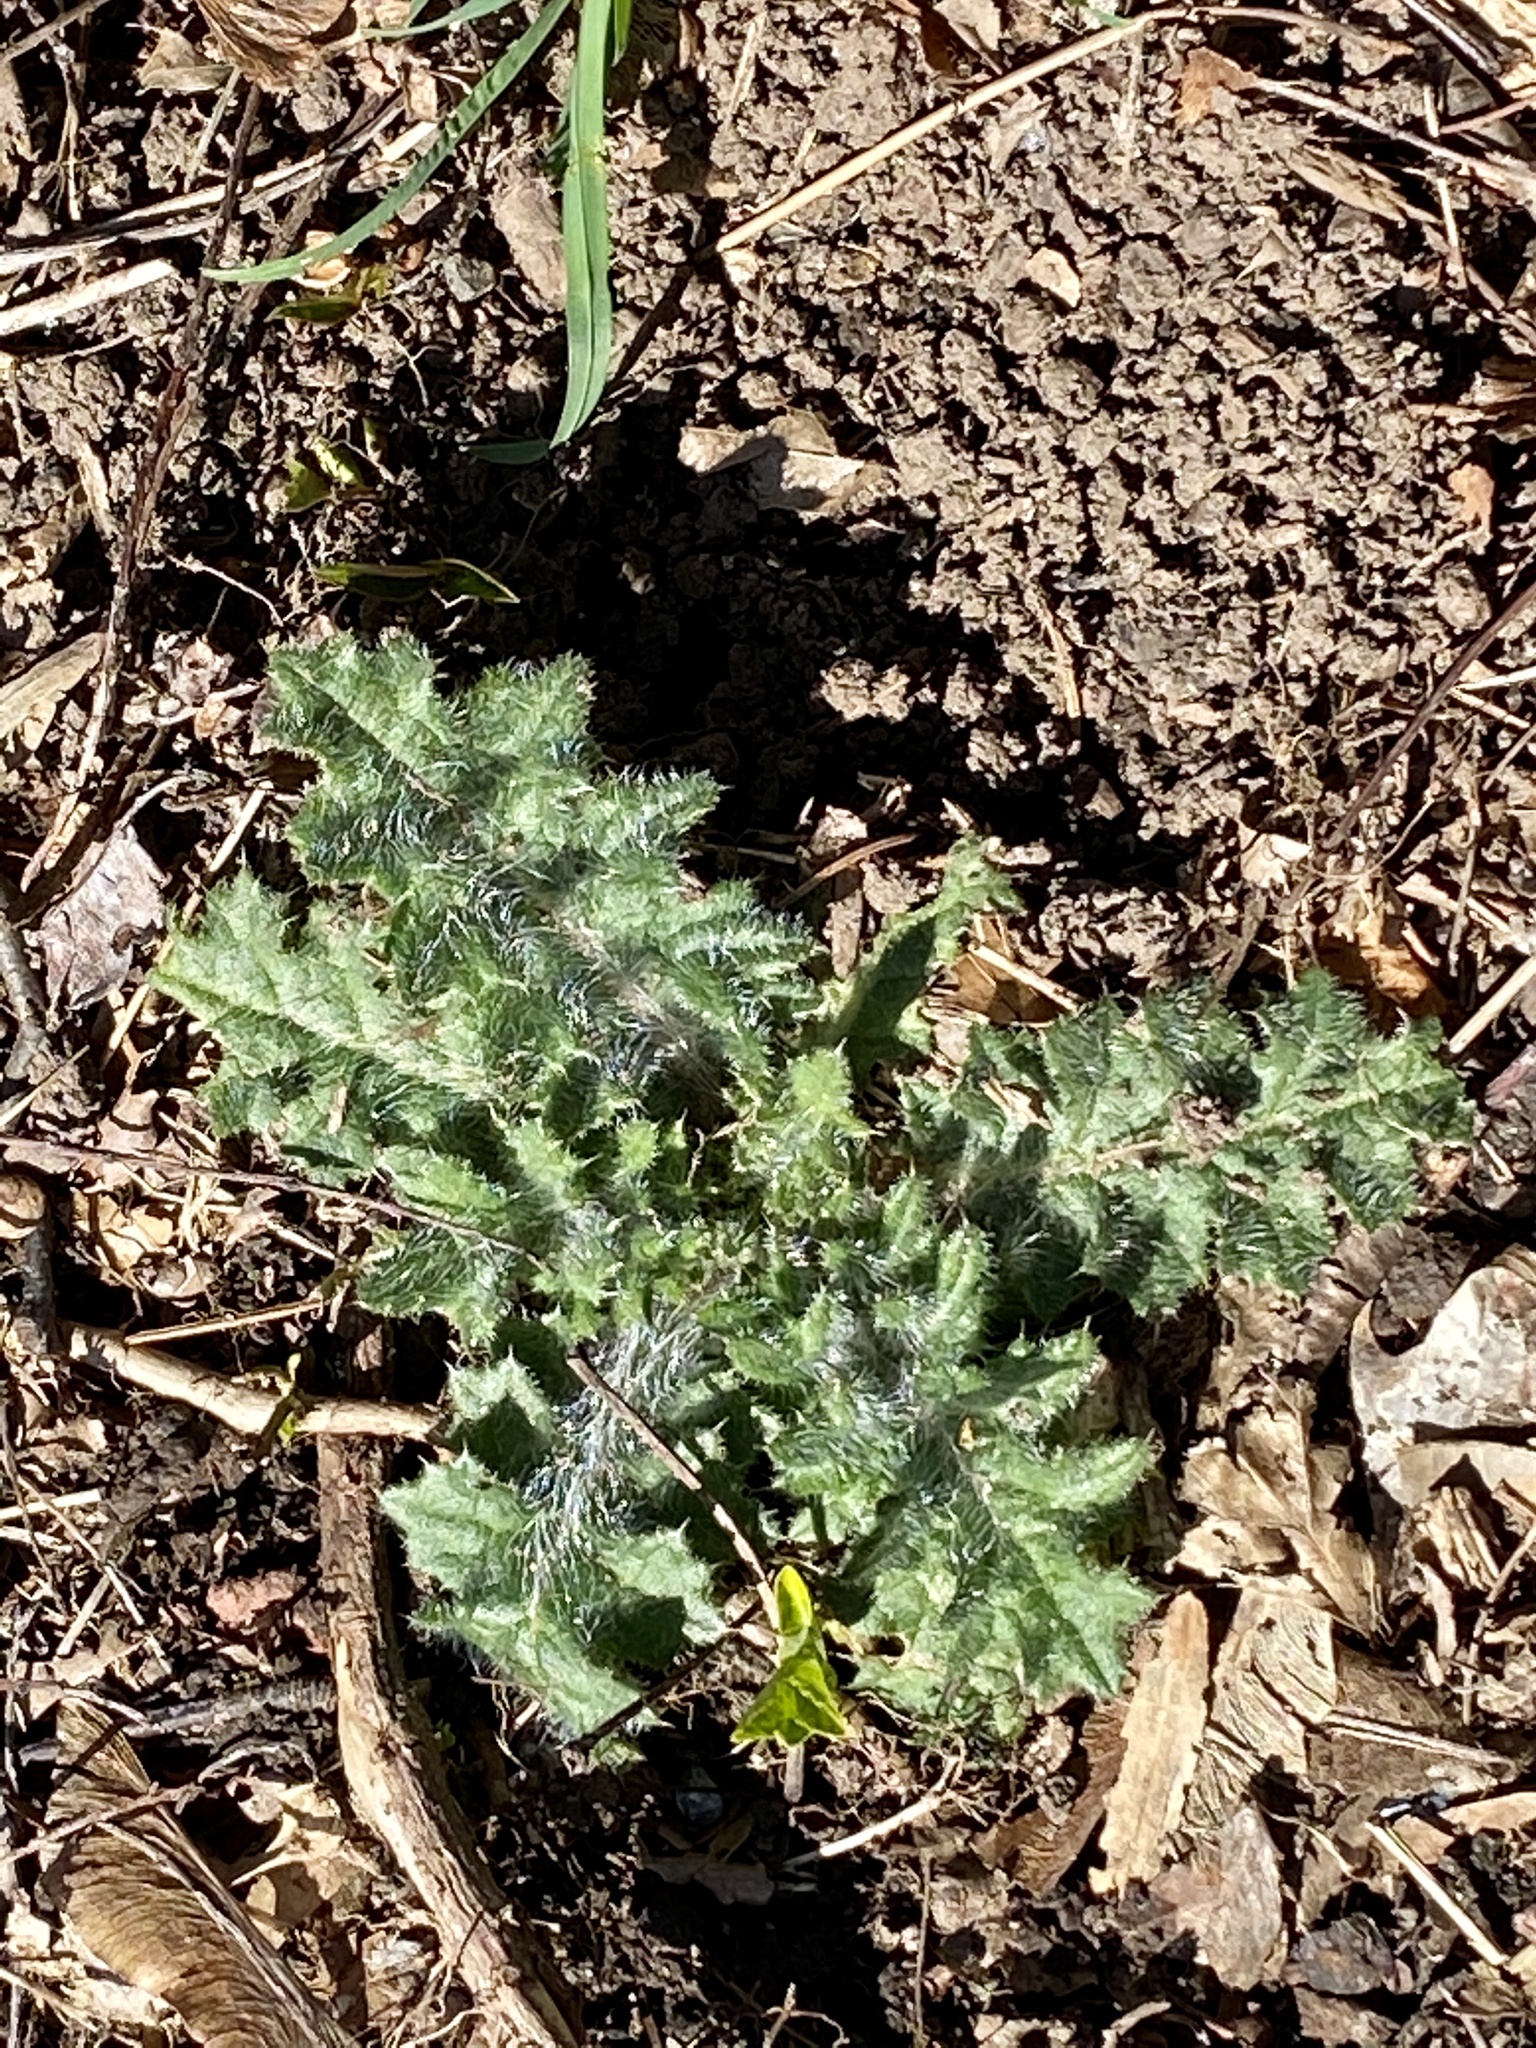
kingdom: Plantae
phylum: Tracheophyta
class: Magnoliopsida
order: Asterales
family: Asteraceae
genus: Cirsium
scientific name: Cirsium vulgare
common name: Bull thistle
